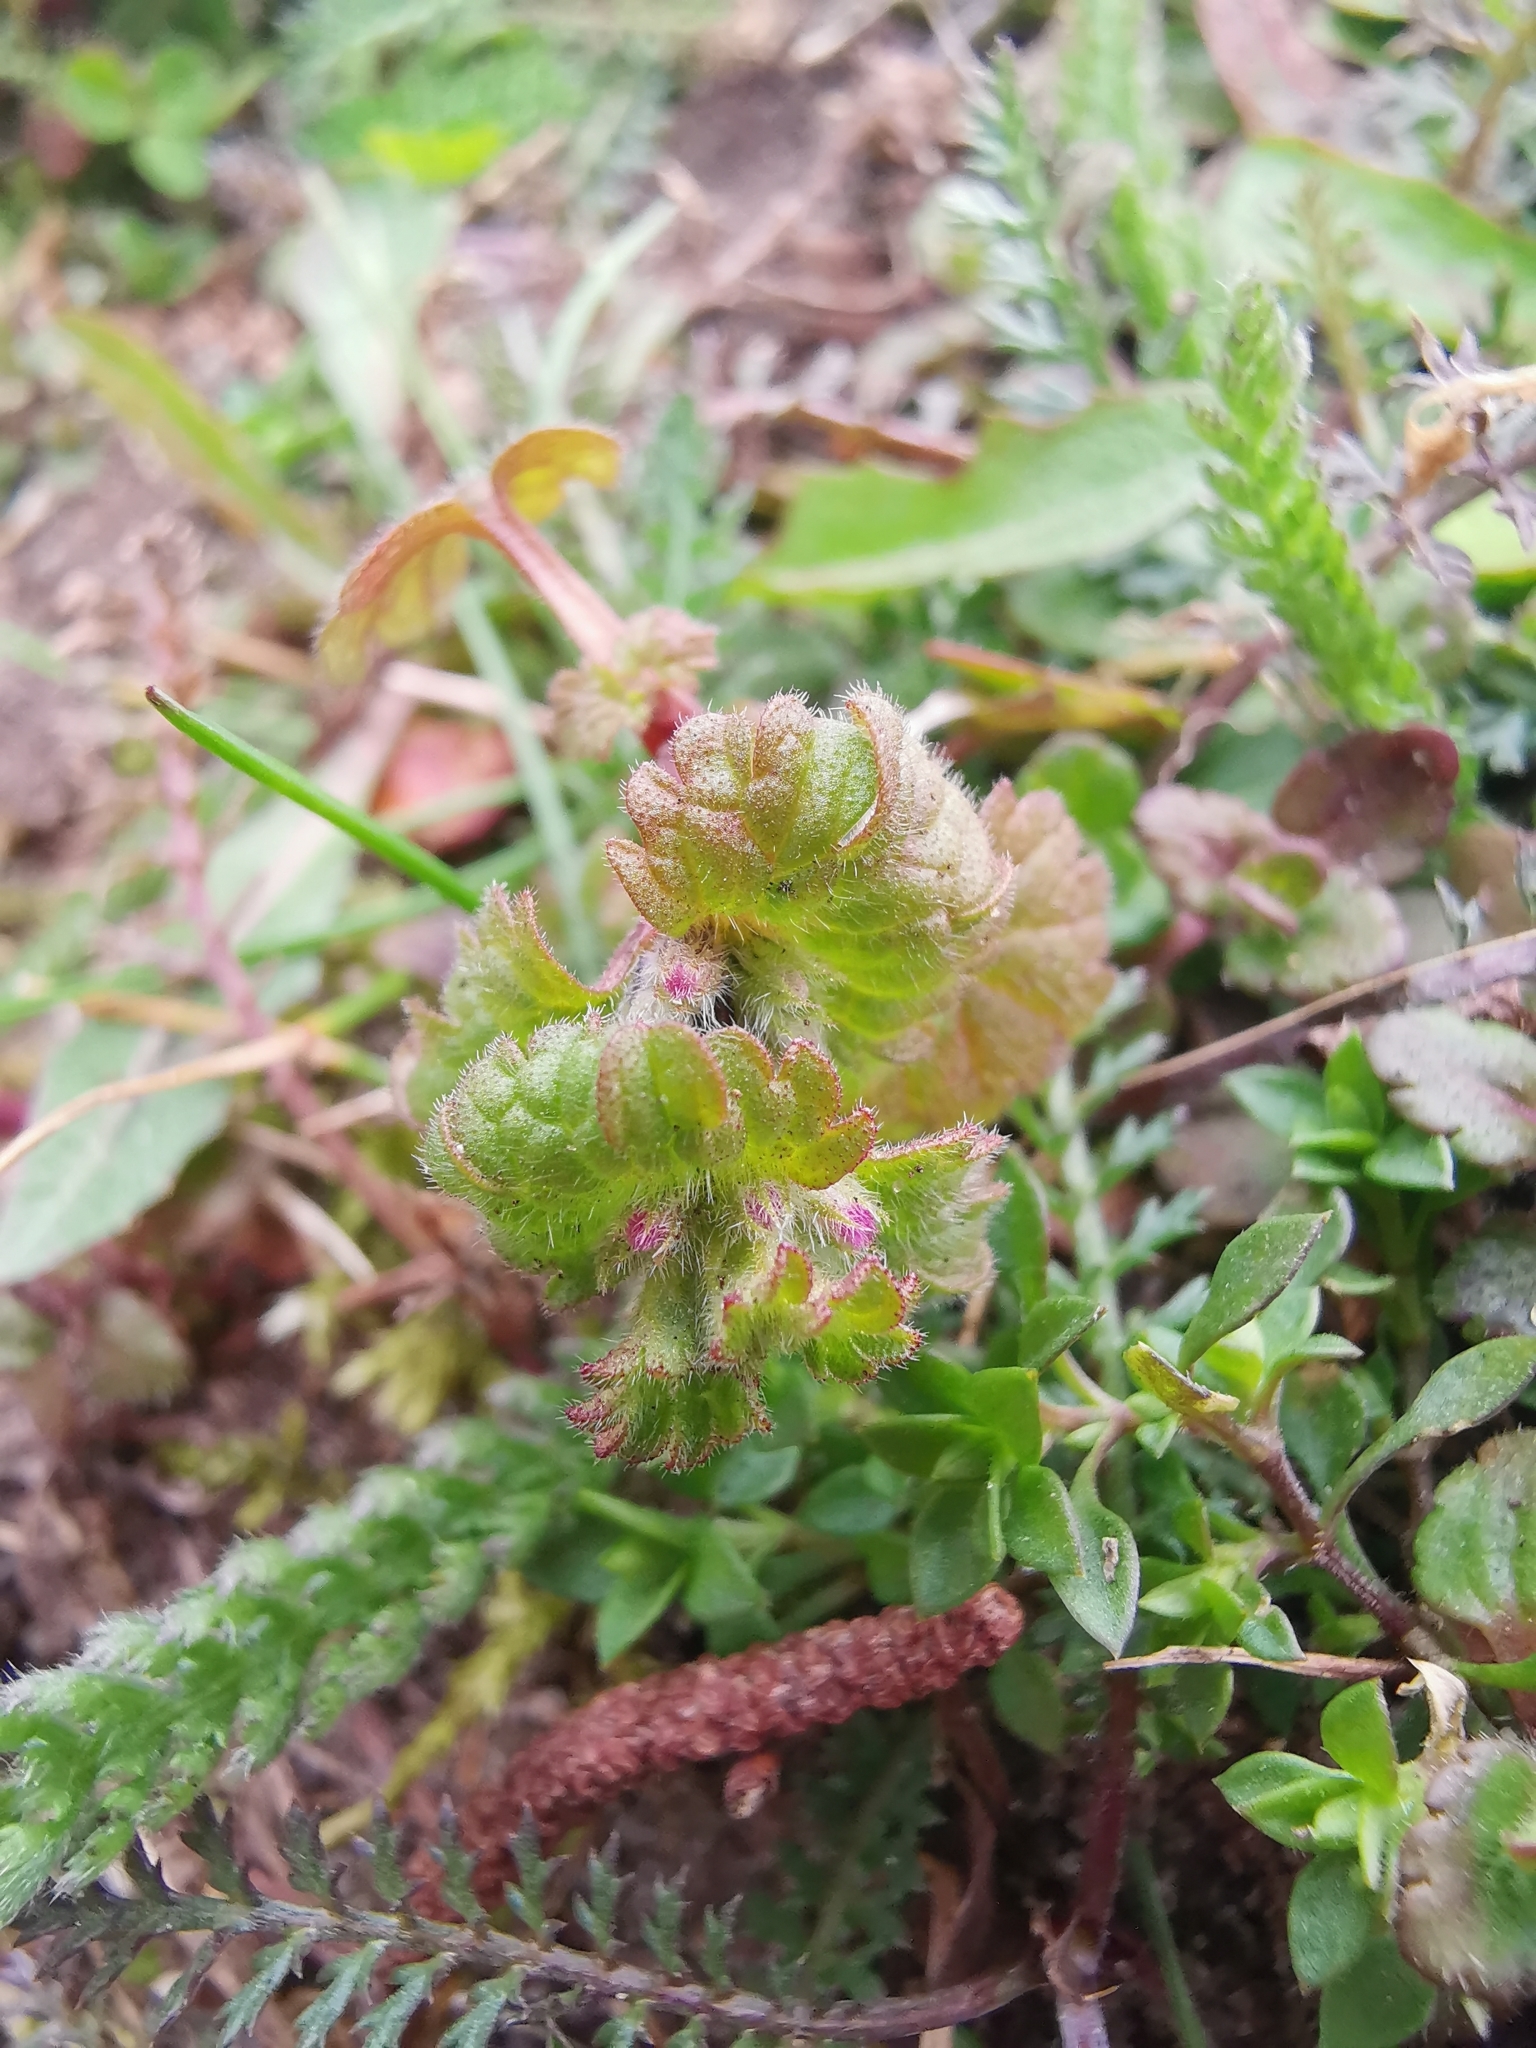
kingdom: Plantae
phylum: Tracheophyta
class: Magnoliopsida
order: Lamiales
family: Lamiaceae
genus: Lamium
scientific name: Lamium amplexicaule
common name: Henbit dead-nettle
